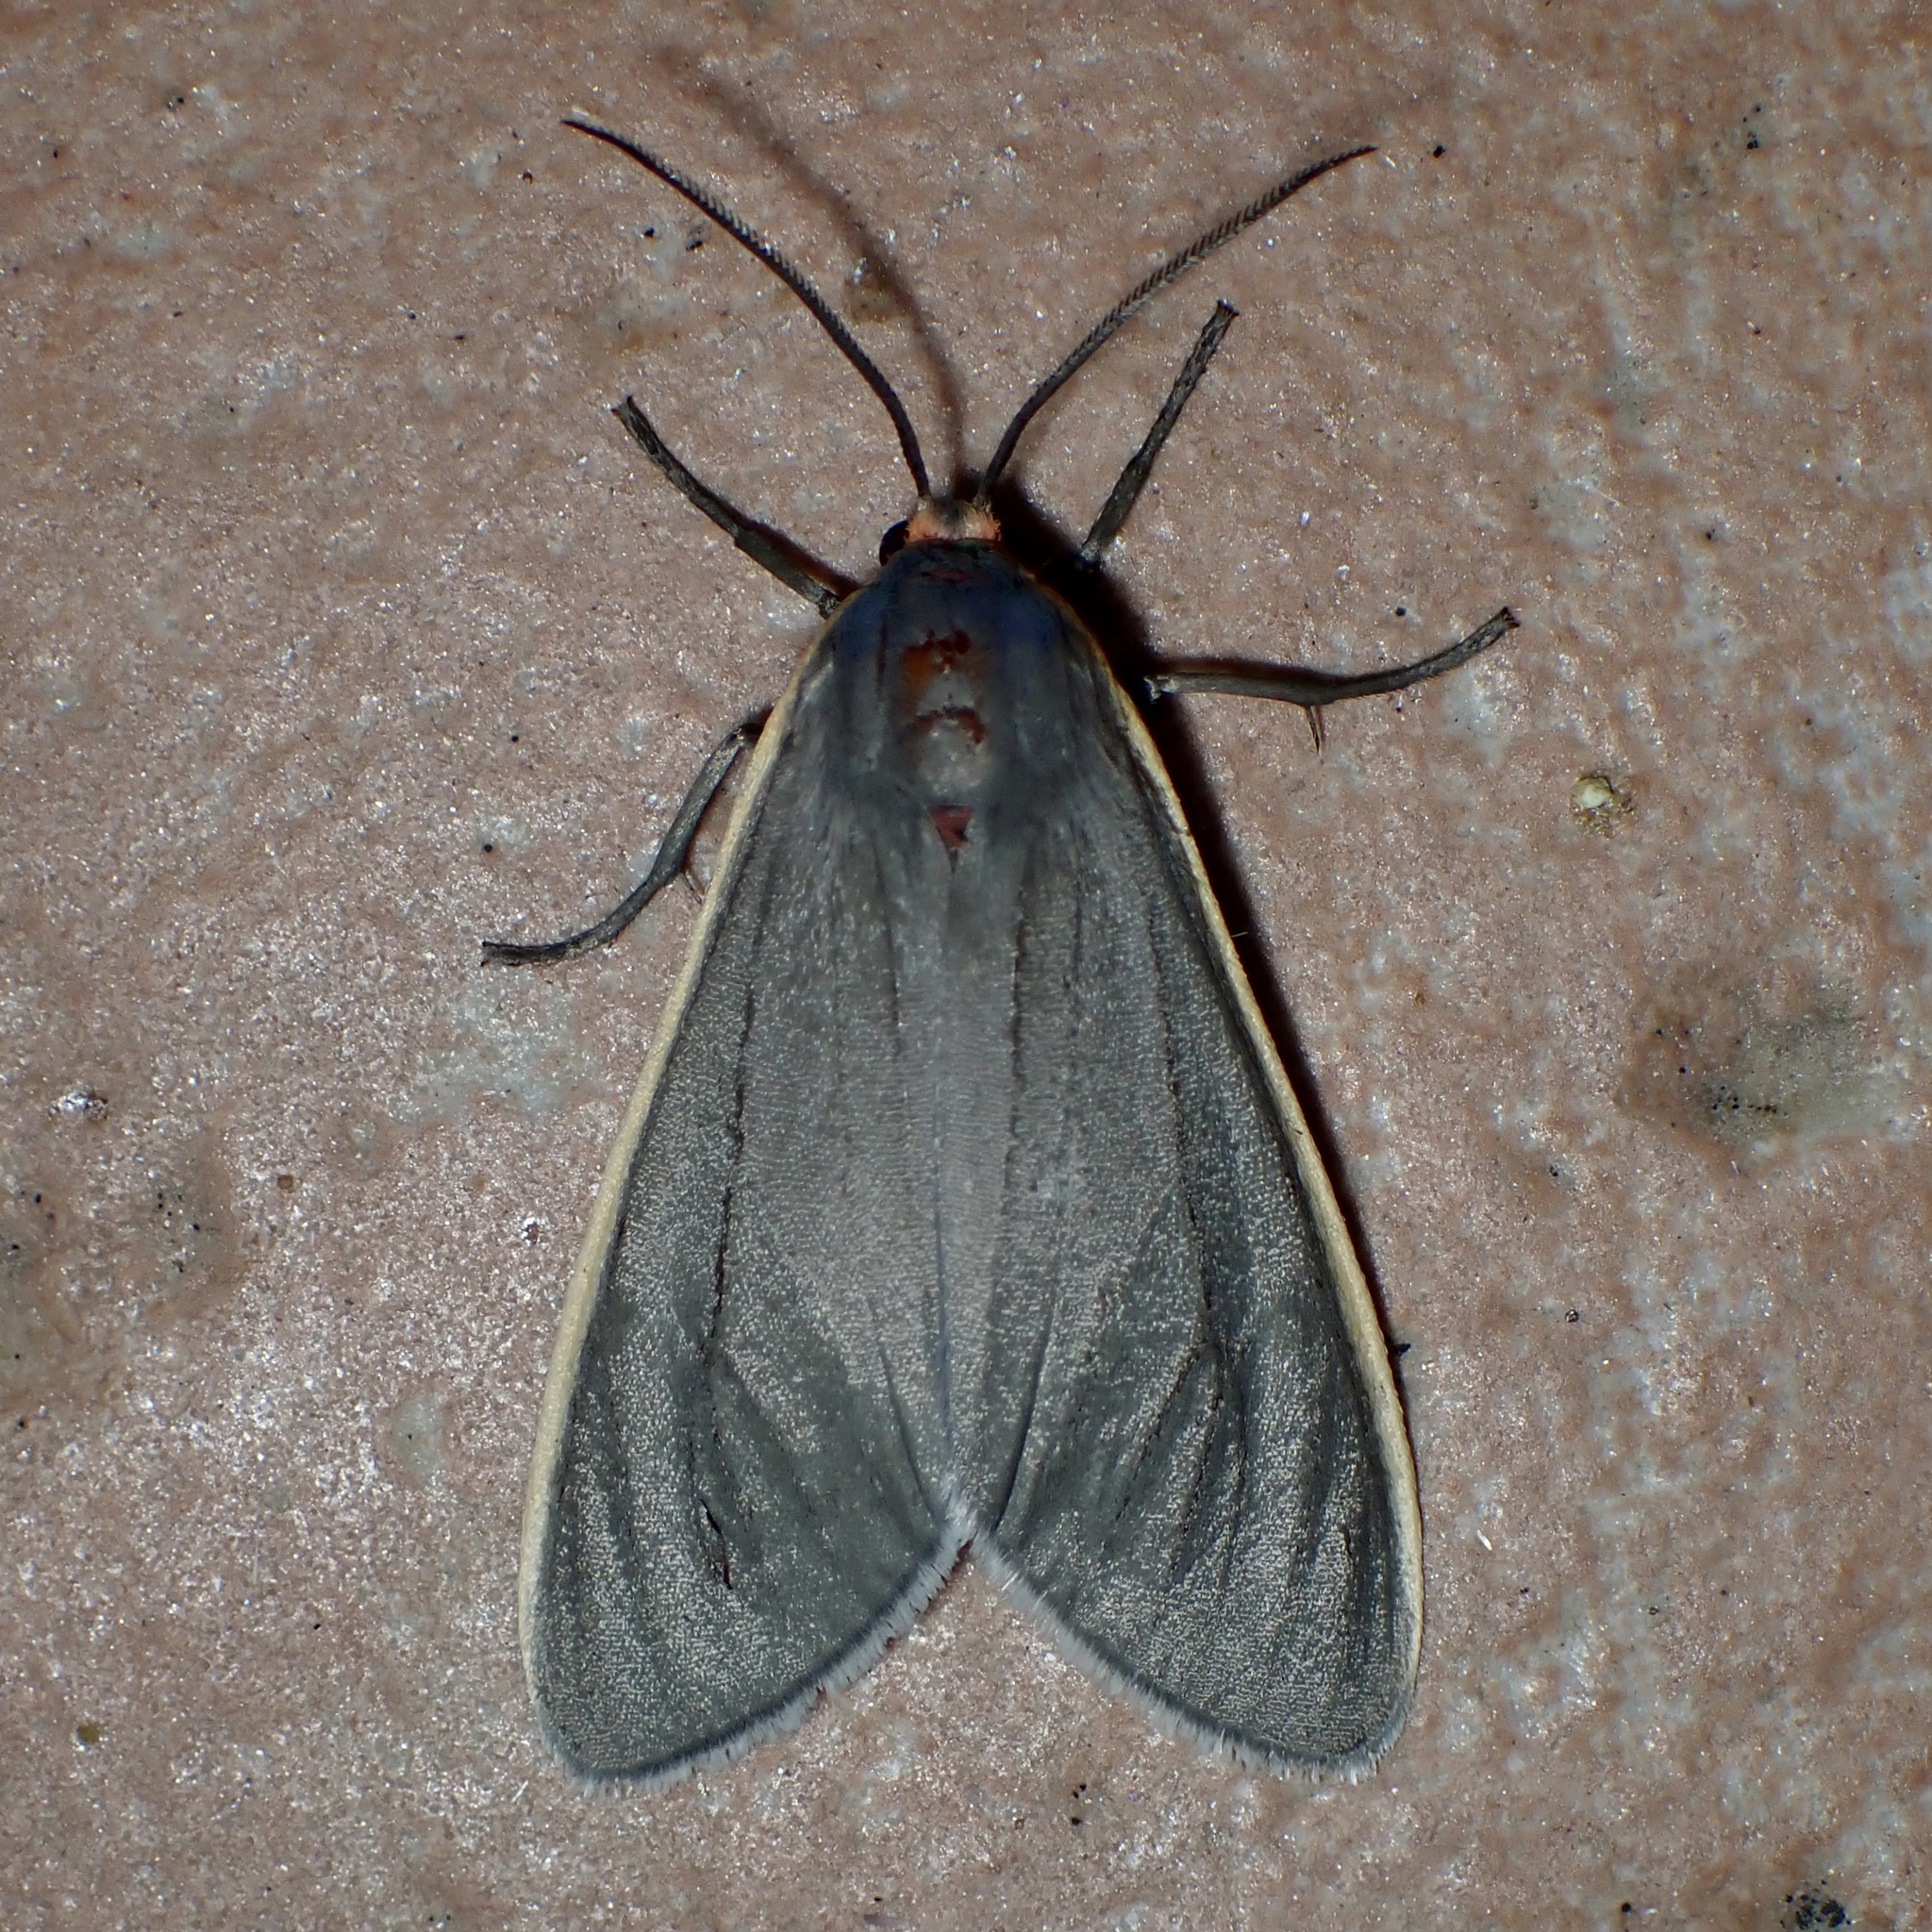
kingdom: Animalia
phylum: Arthropoda
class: Insecta
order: Lepidoptera
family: Erebidae
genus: Euchaetes
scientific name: Euchaetes antica
